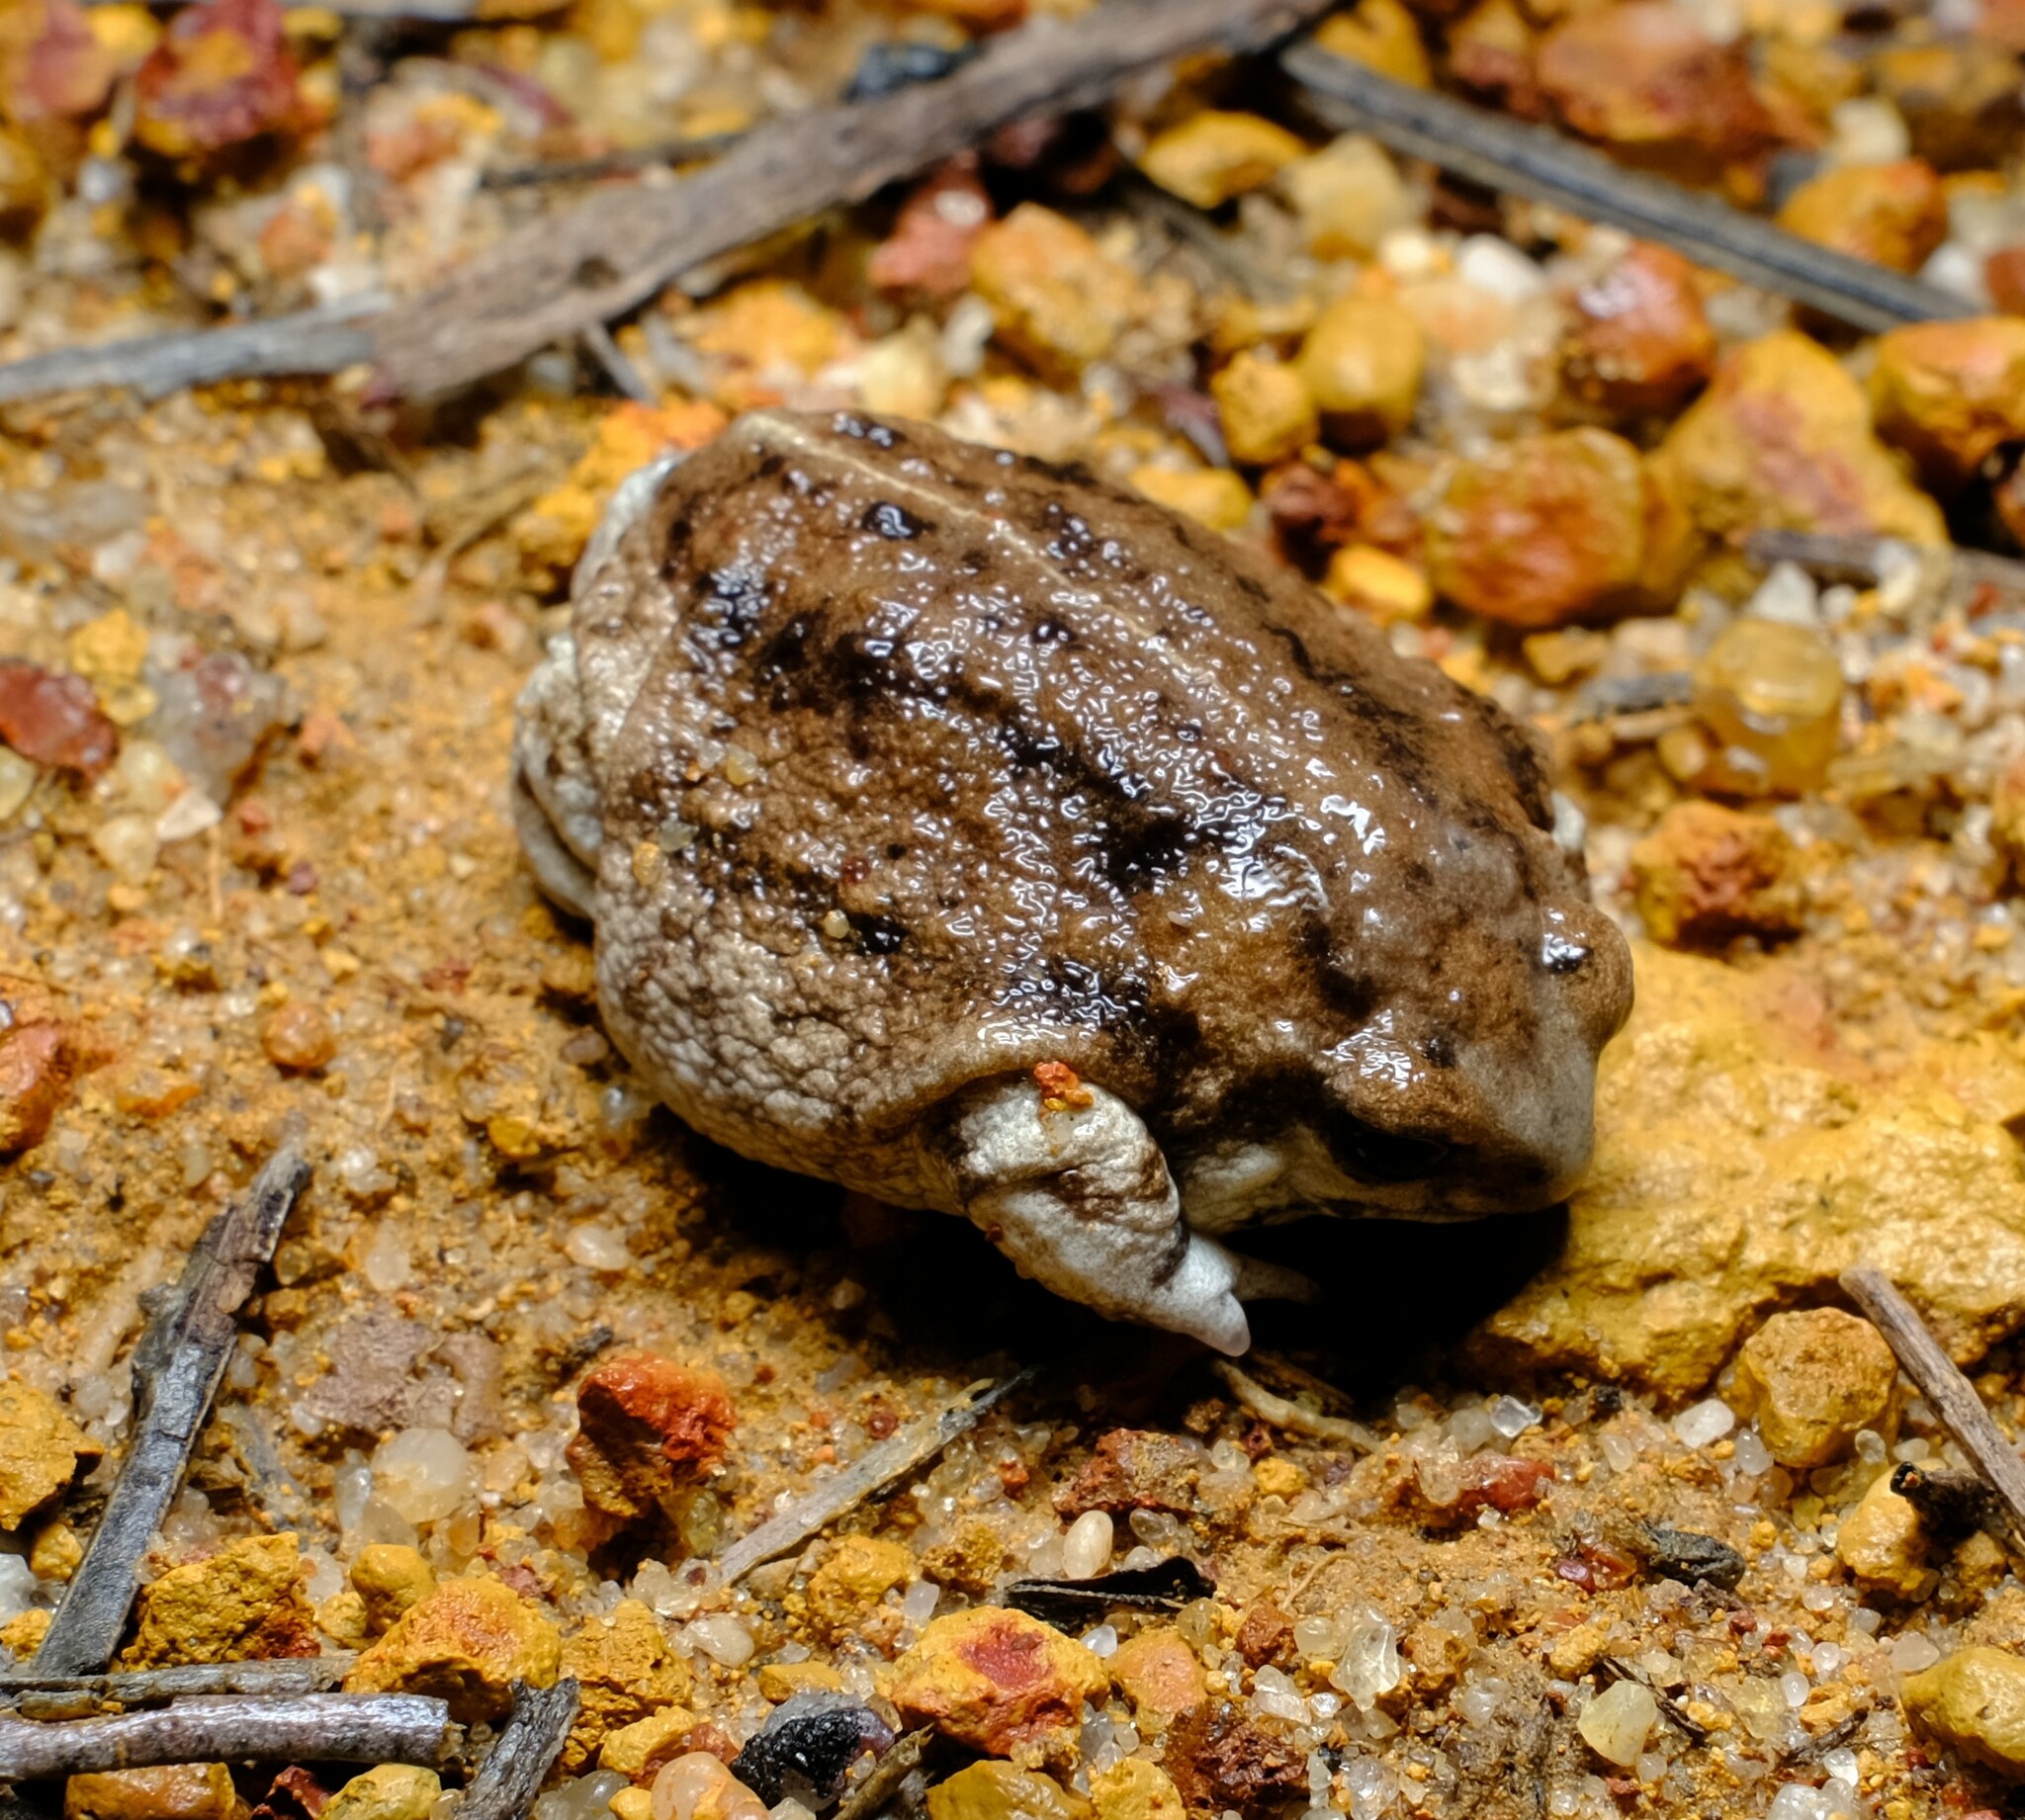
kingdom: Animalia
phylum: Chordata
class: Amphibia
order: Anura
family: Myobatrachidae
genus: Arenophryne
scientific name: Arenophryne xiphorhyncha
